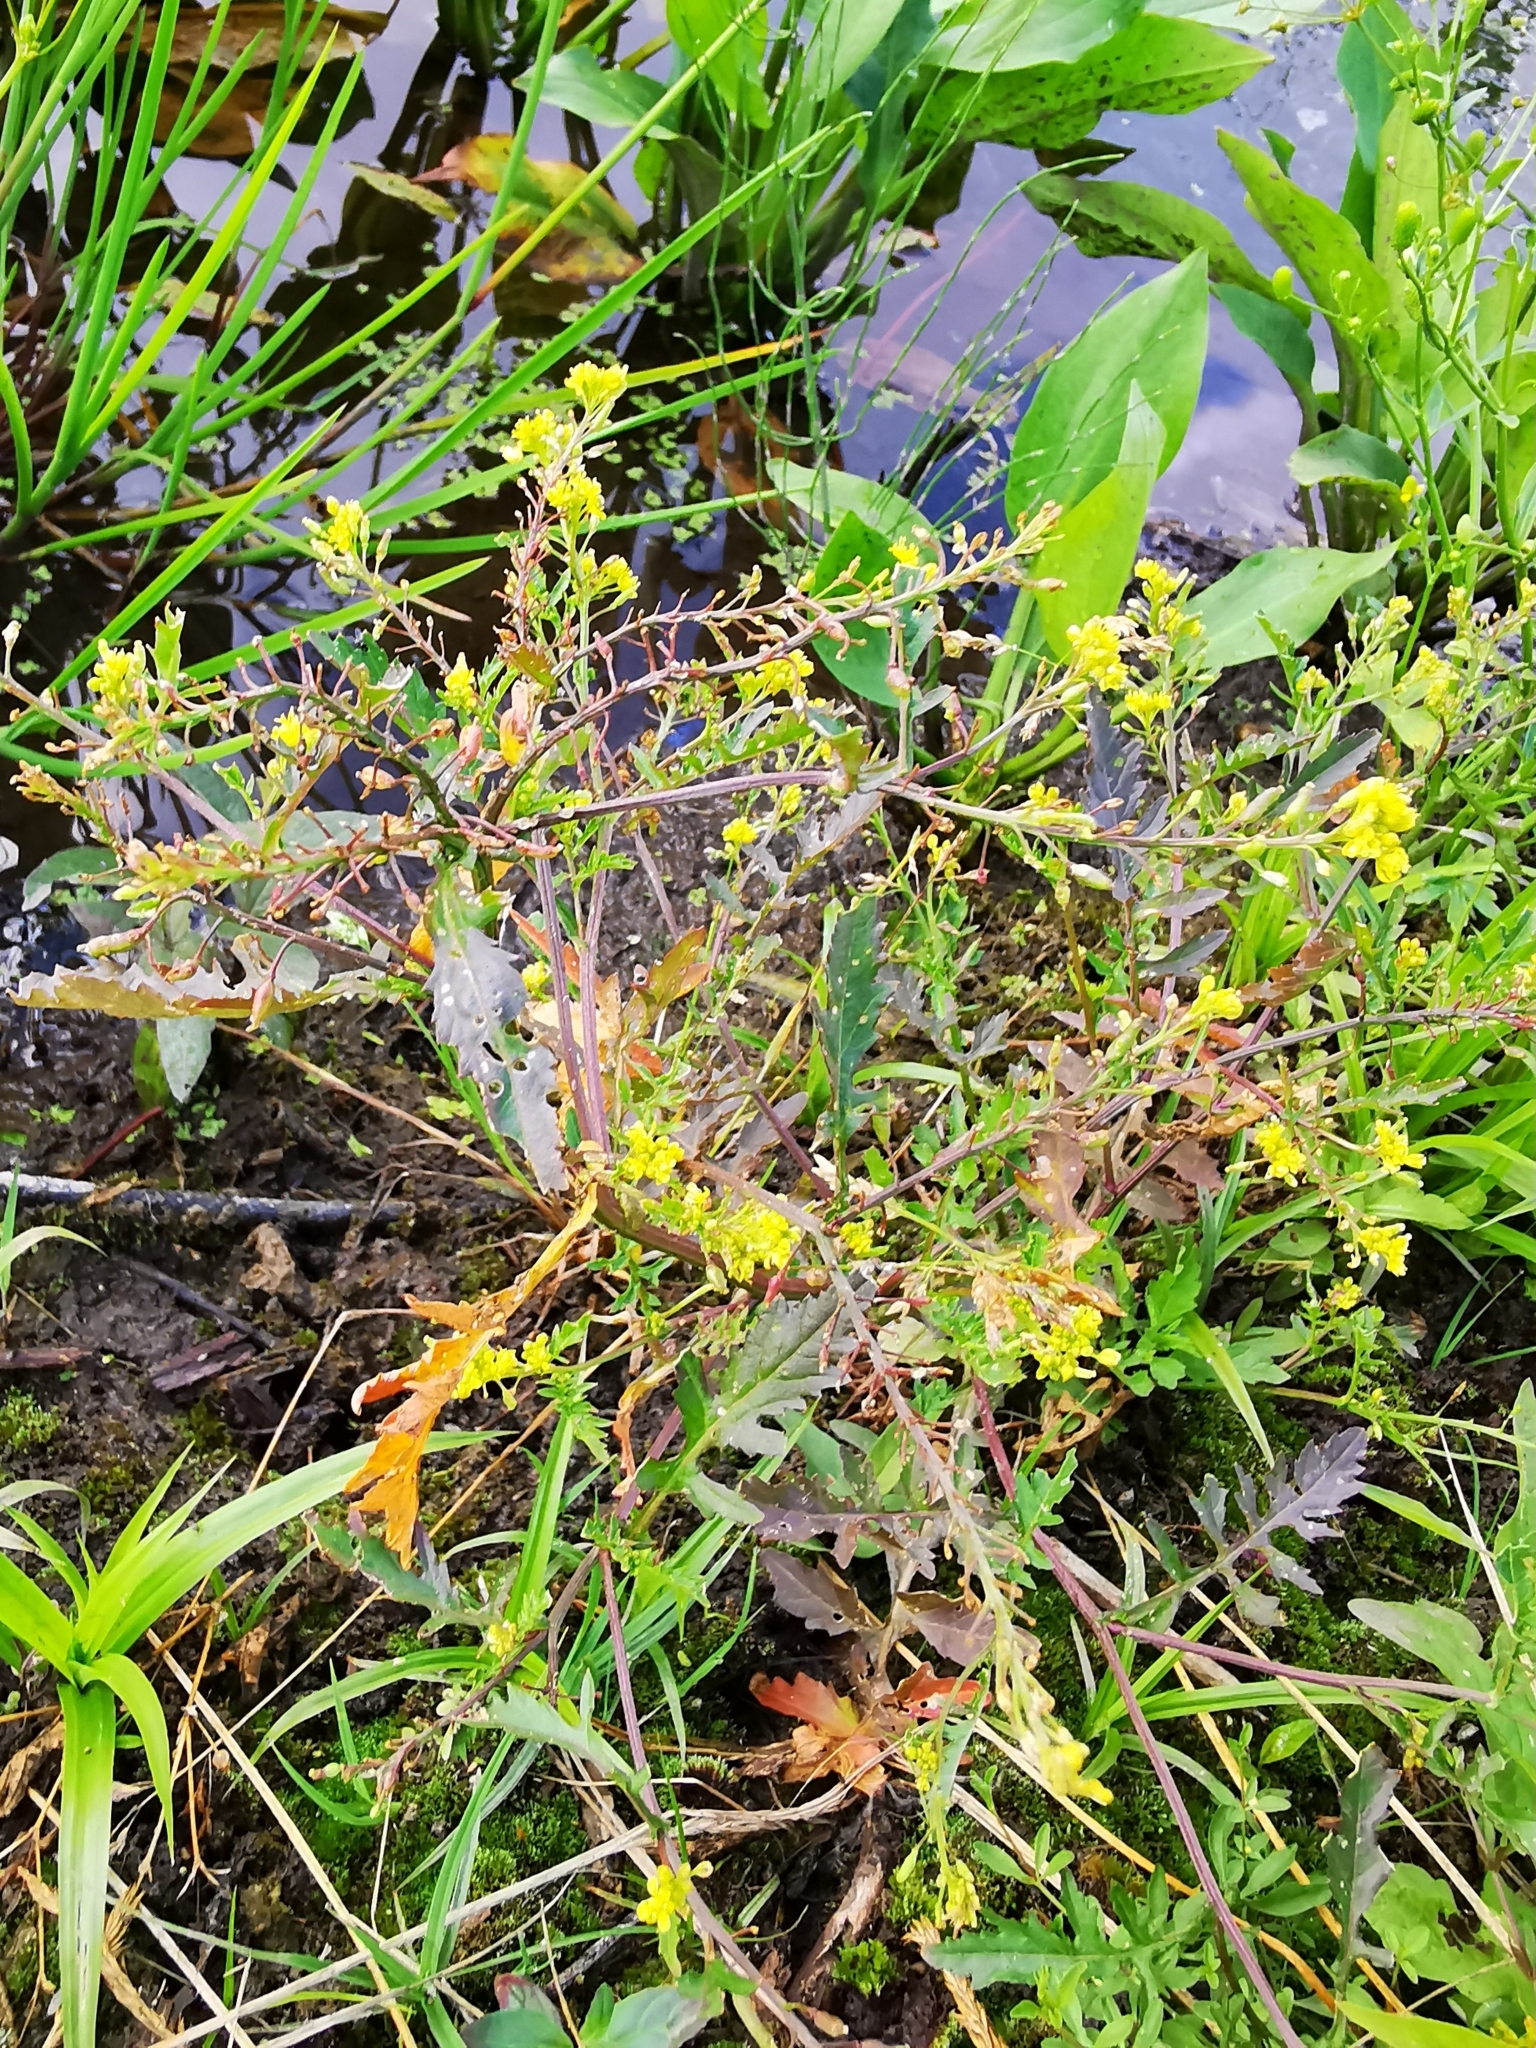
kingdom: Plantae
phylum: Tracheophyta
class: Magnoliopsida
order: Brassicales
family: Brassicaceae
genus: Rorippa
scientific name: Rorippa palustris
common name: Marsh yellow-cress
